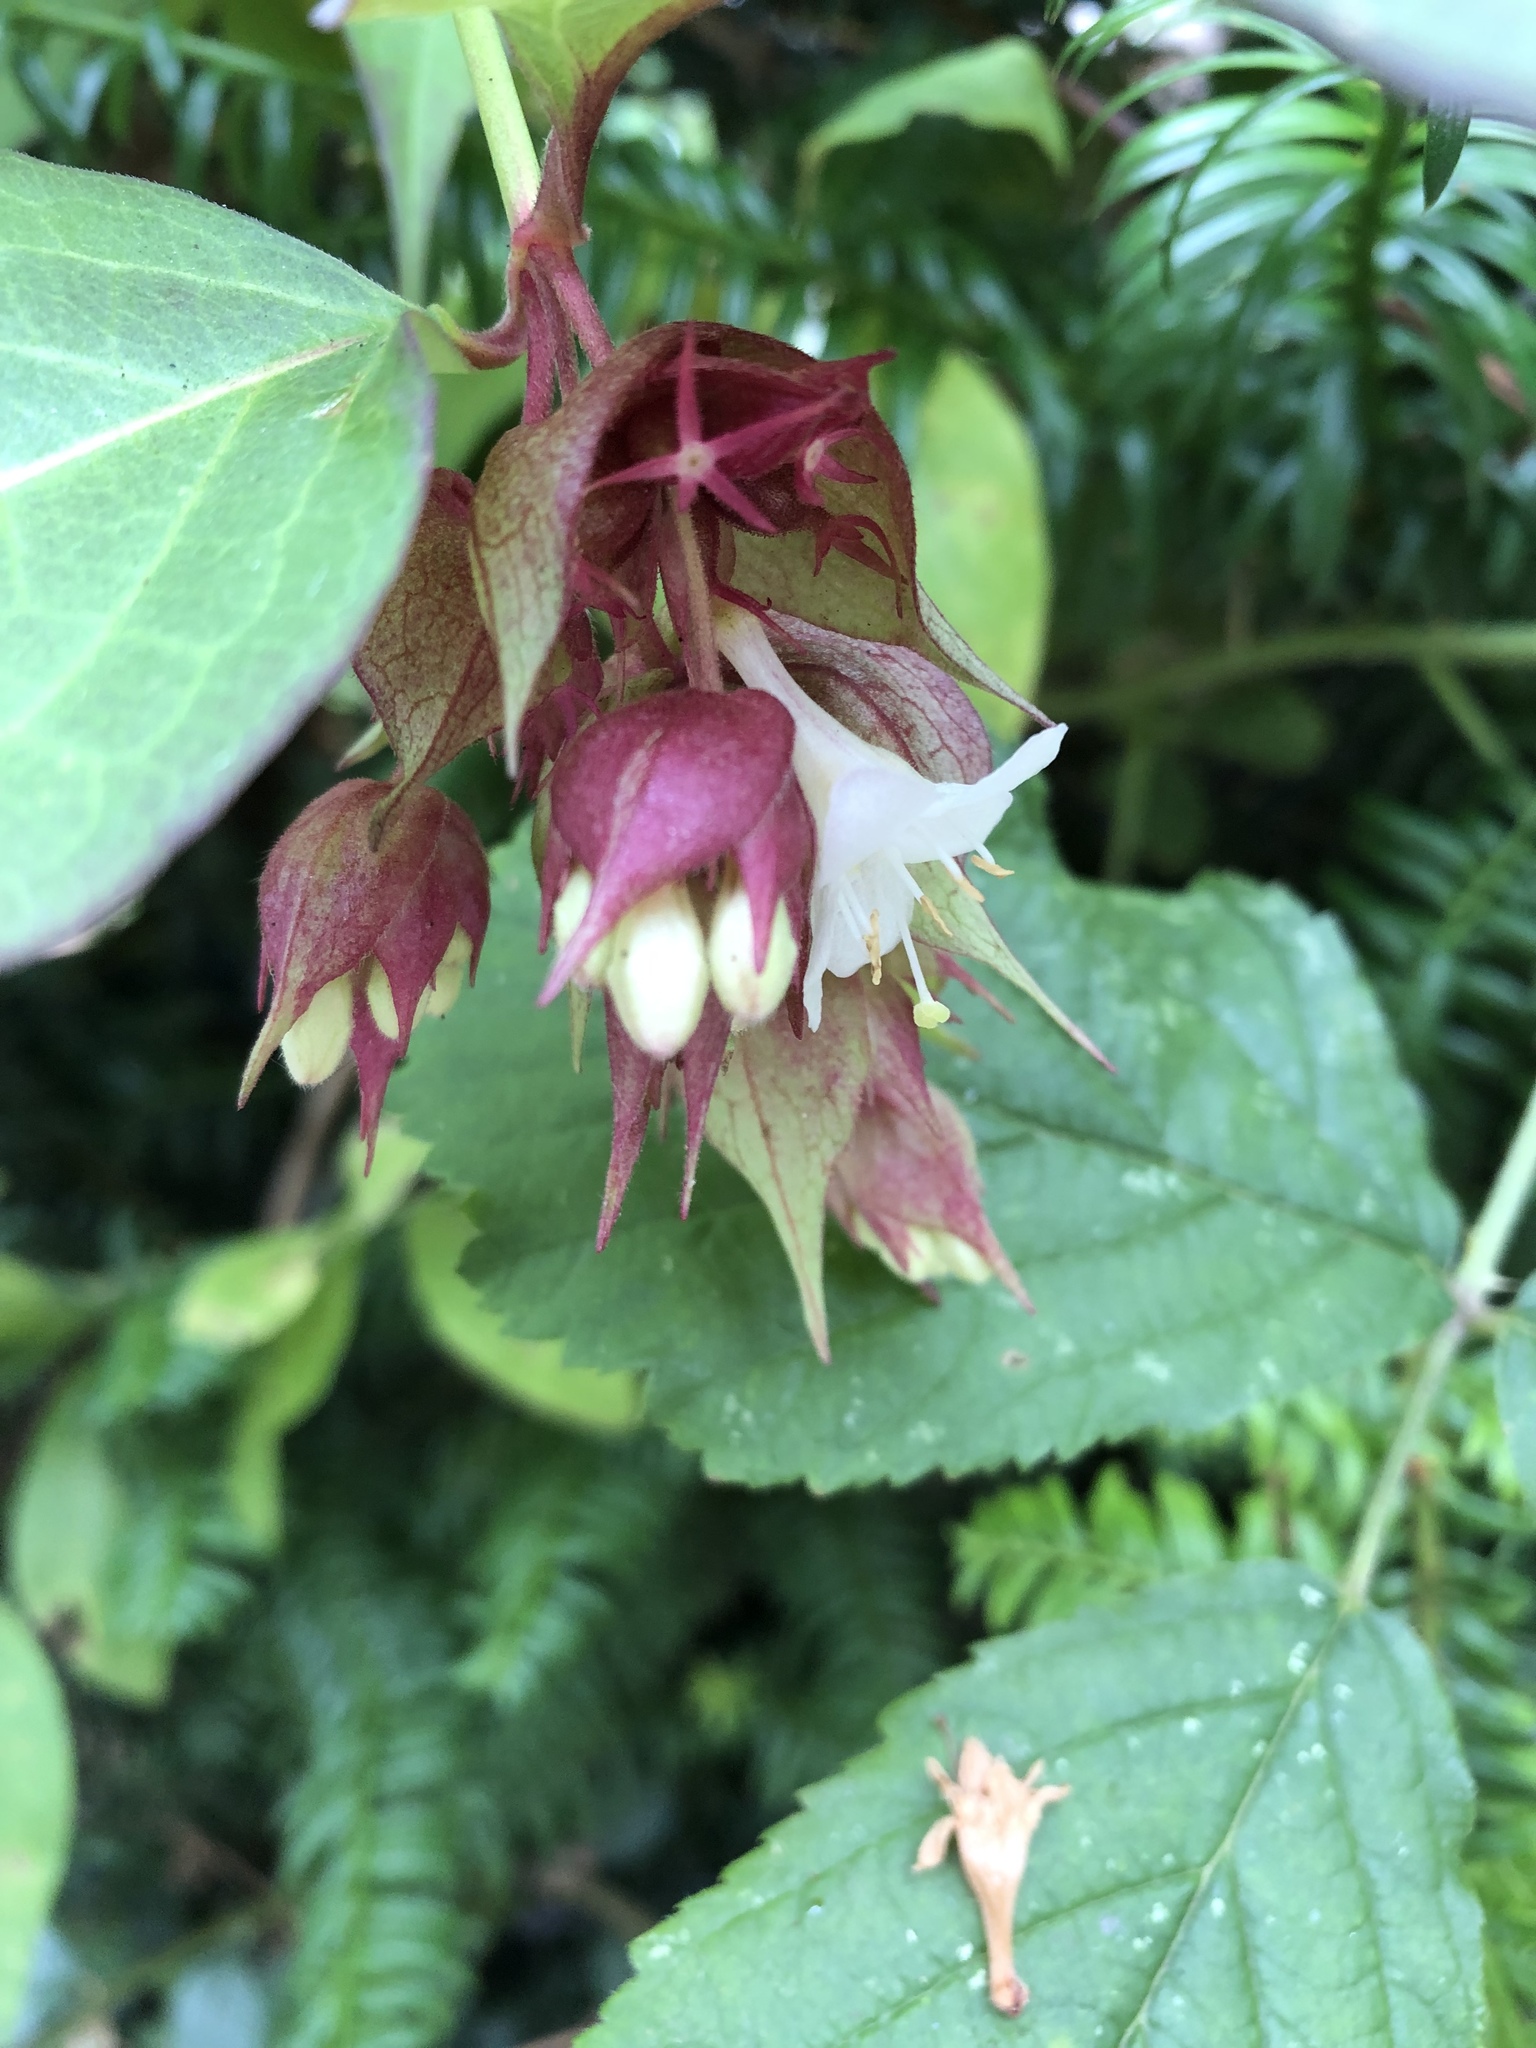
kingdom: Plantae
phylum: Tracheophyta
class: Magnoliopsida
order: Dipsacales
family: Caprifoliaceae
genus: Leycesteria
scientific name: Leycesteria formosa
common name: Himalayan honeysuckle
